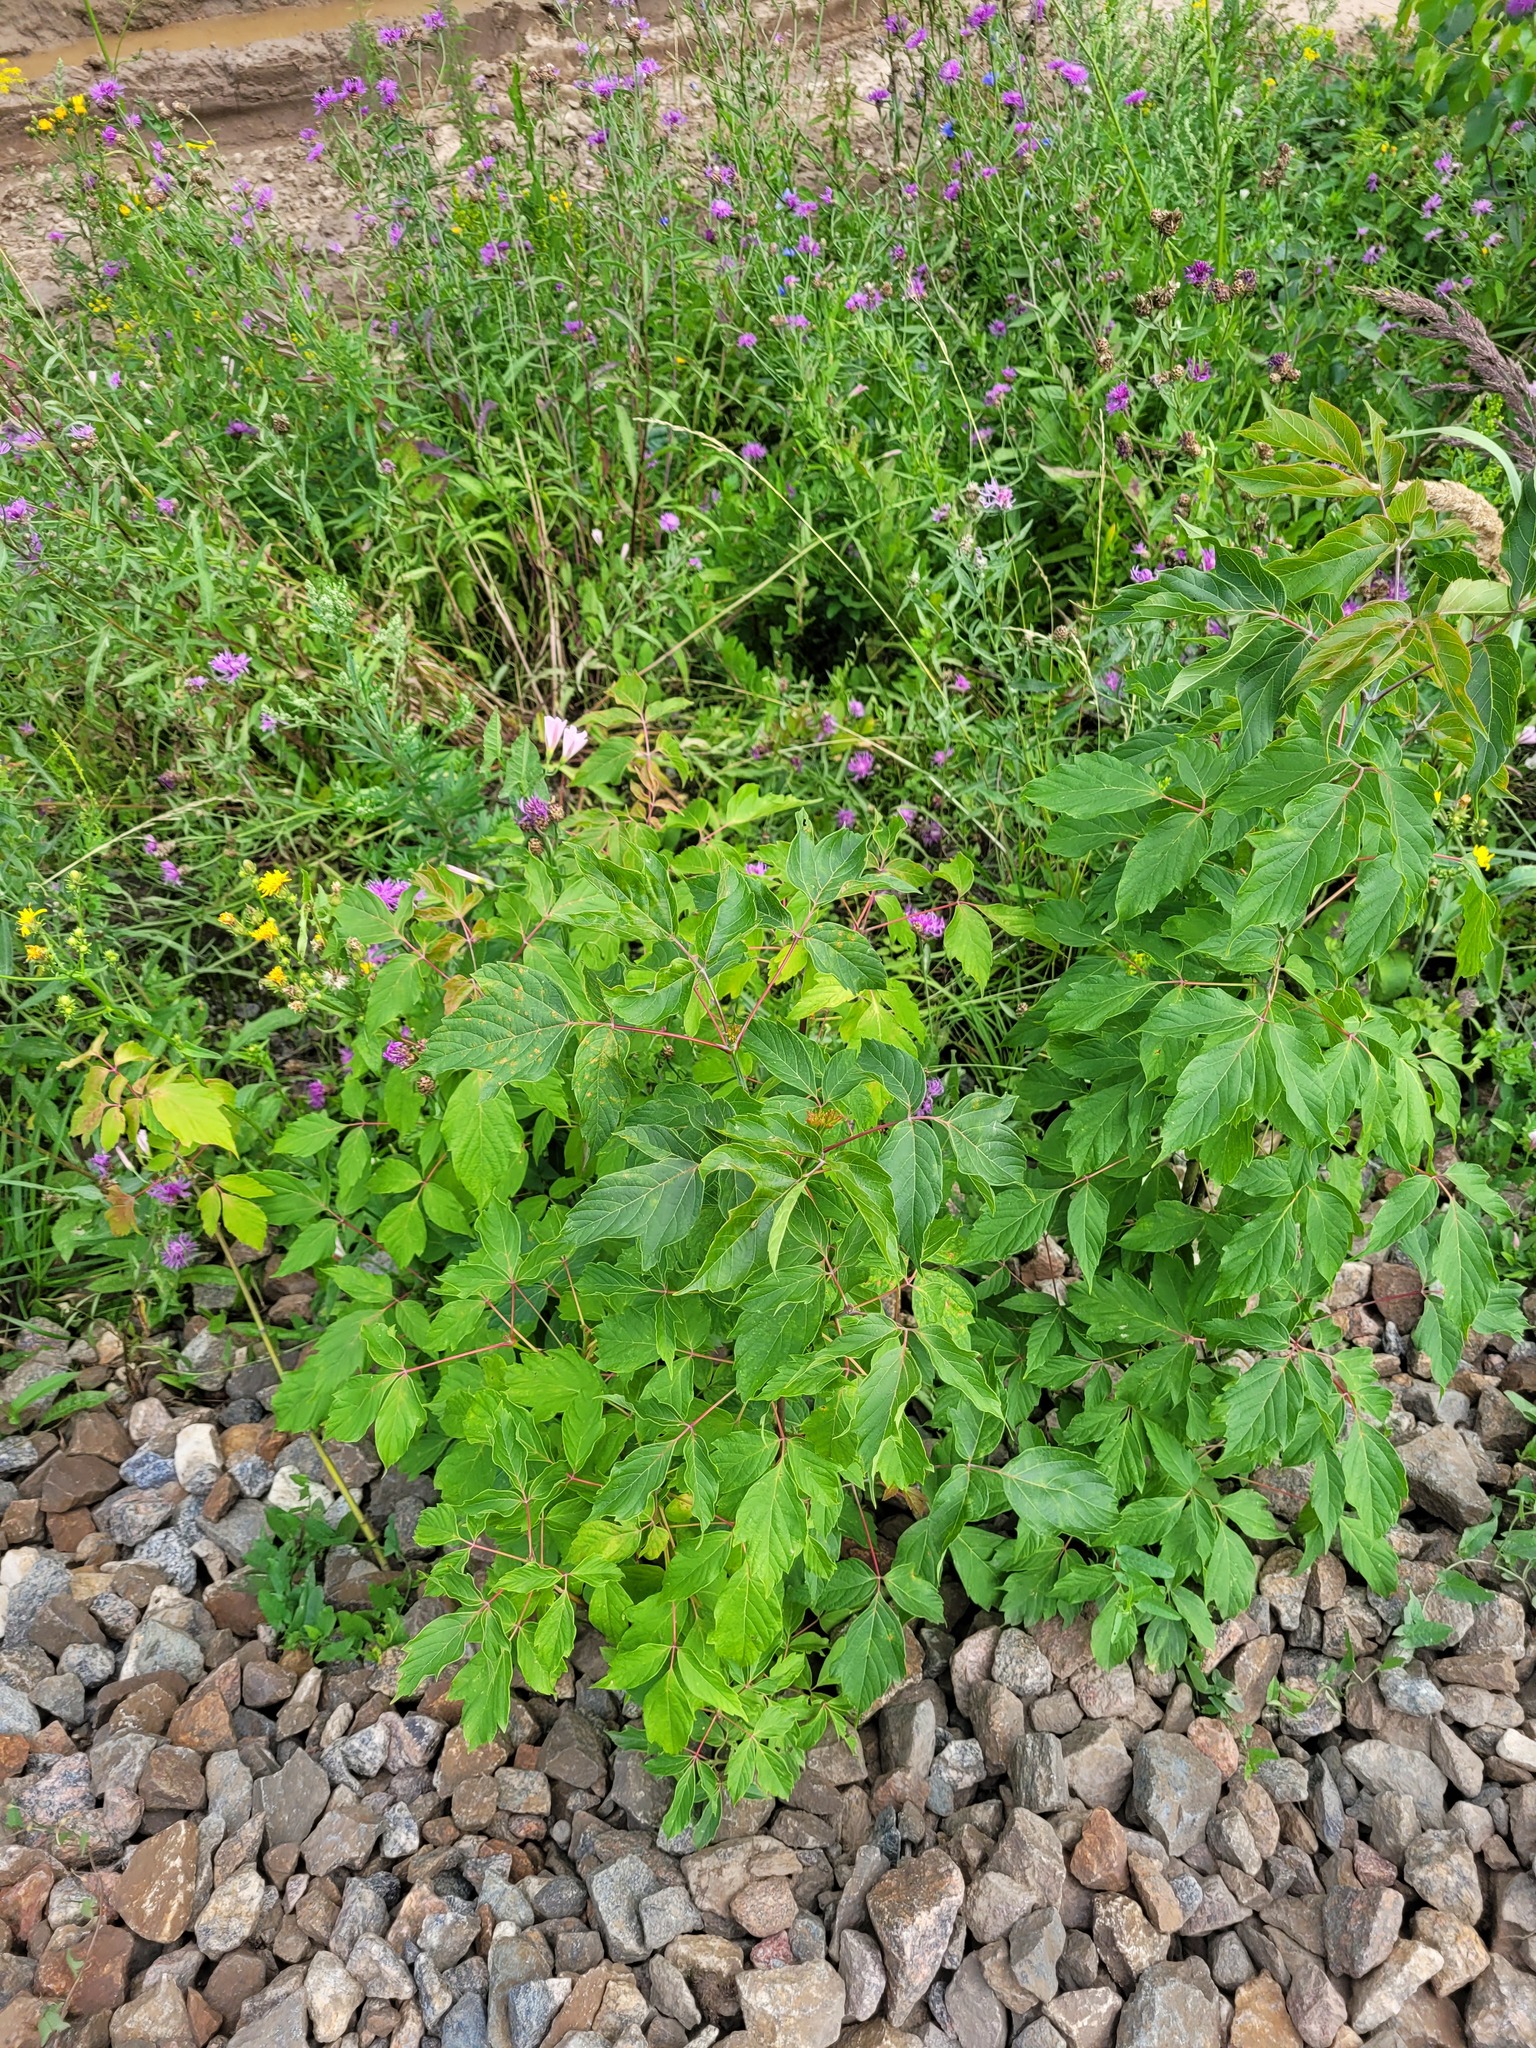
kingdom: Plantae
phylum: Tracheophyta
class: Magnoliopsida
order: Sapindales
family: Sapindaceae
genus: Acer
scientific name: Acer negundo
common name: Ashleaf maple
